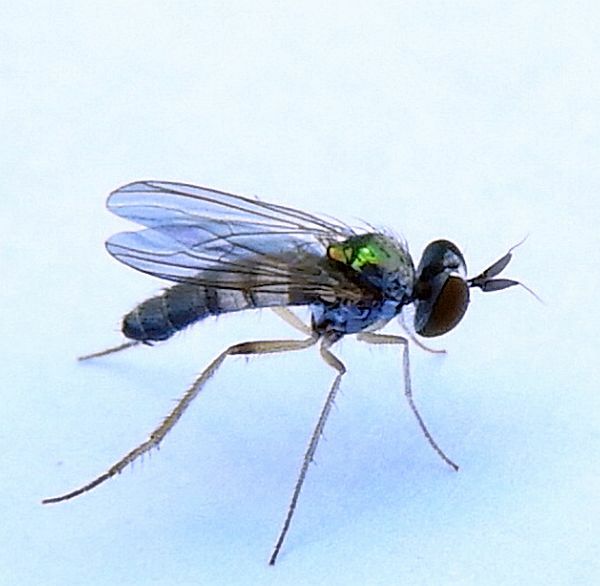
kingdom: Animalia
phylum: Arthropoda
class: Insecta
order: Diptera
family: Dolichopodidae
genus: Argyra
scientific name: Argyra setipes
